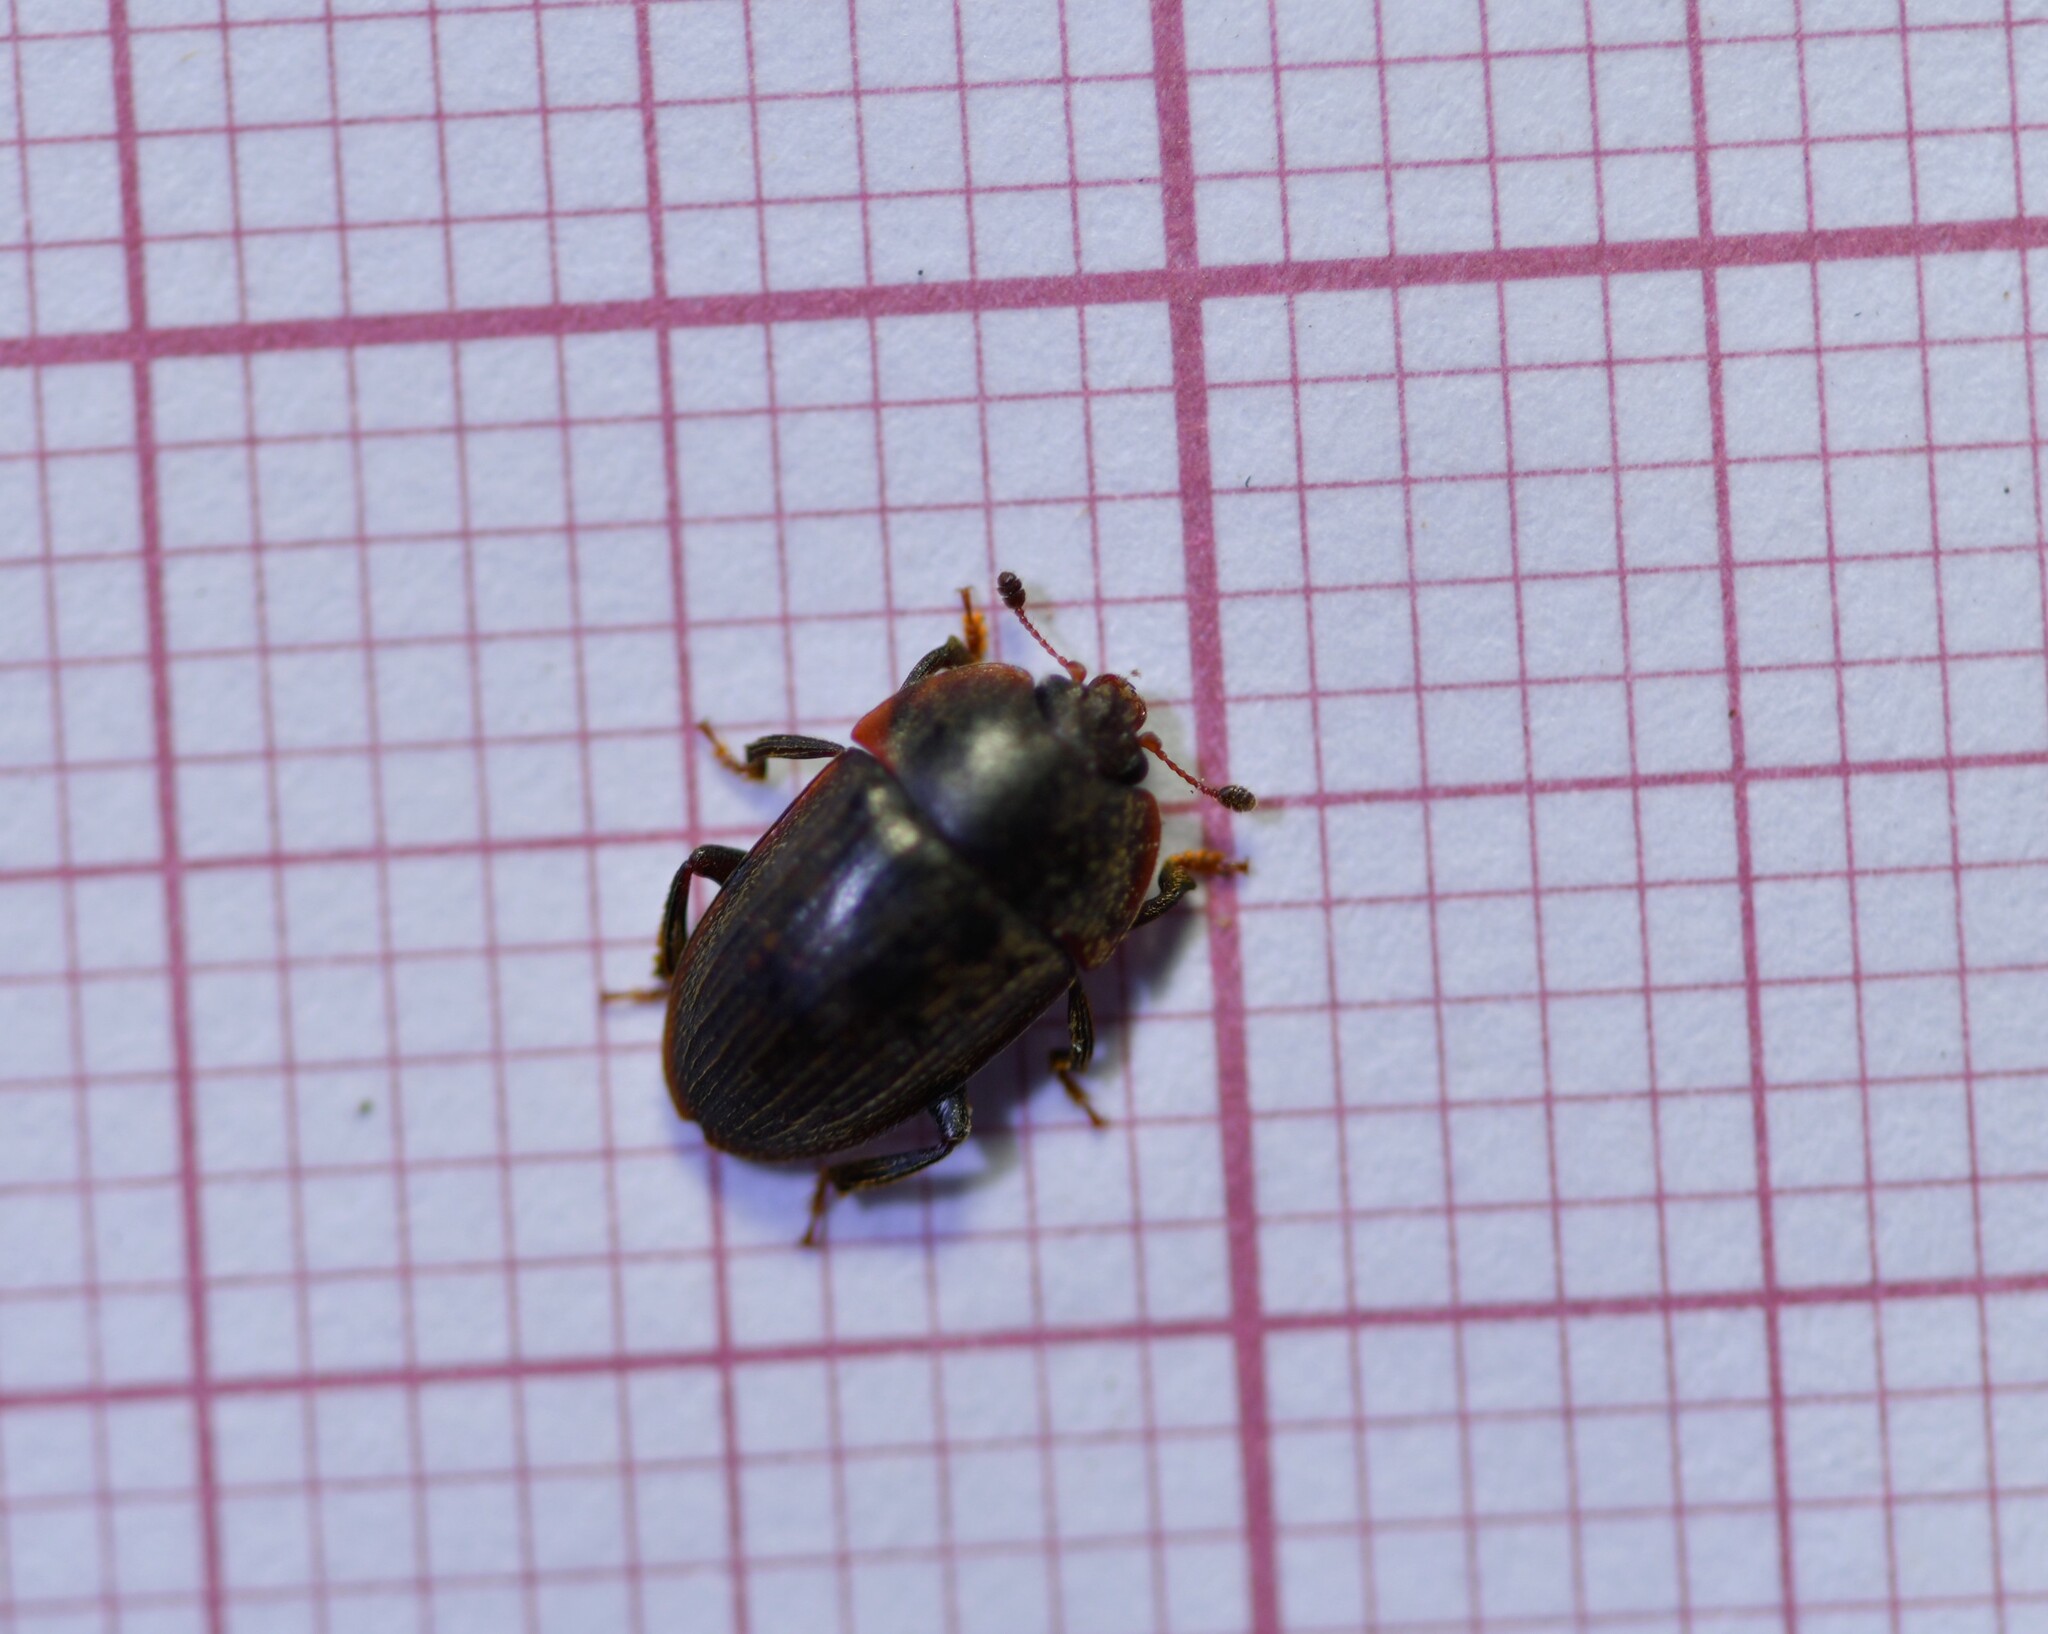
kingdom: Animalia
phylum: Arthropoda
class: Insecta
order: Coleoptera
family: Nitidulidae
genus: Lasiodites
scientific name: Lasiodites
